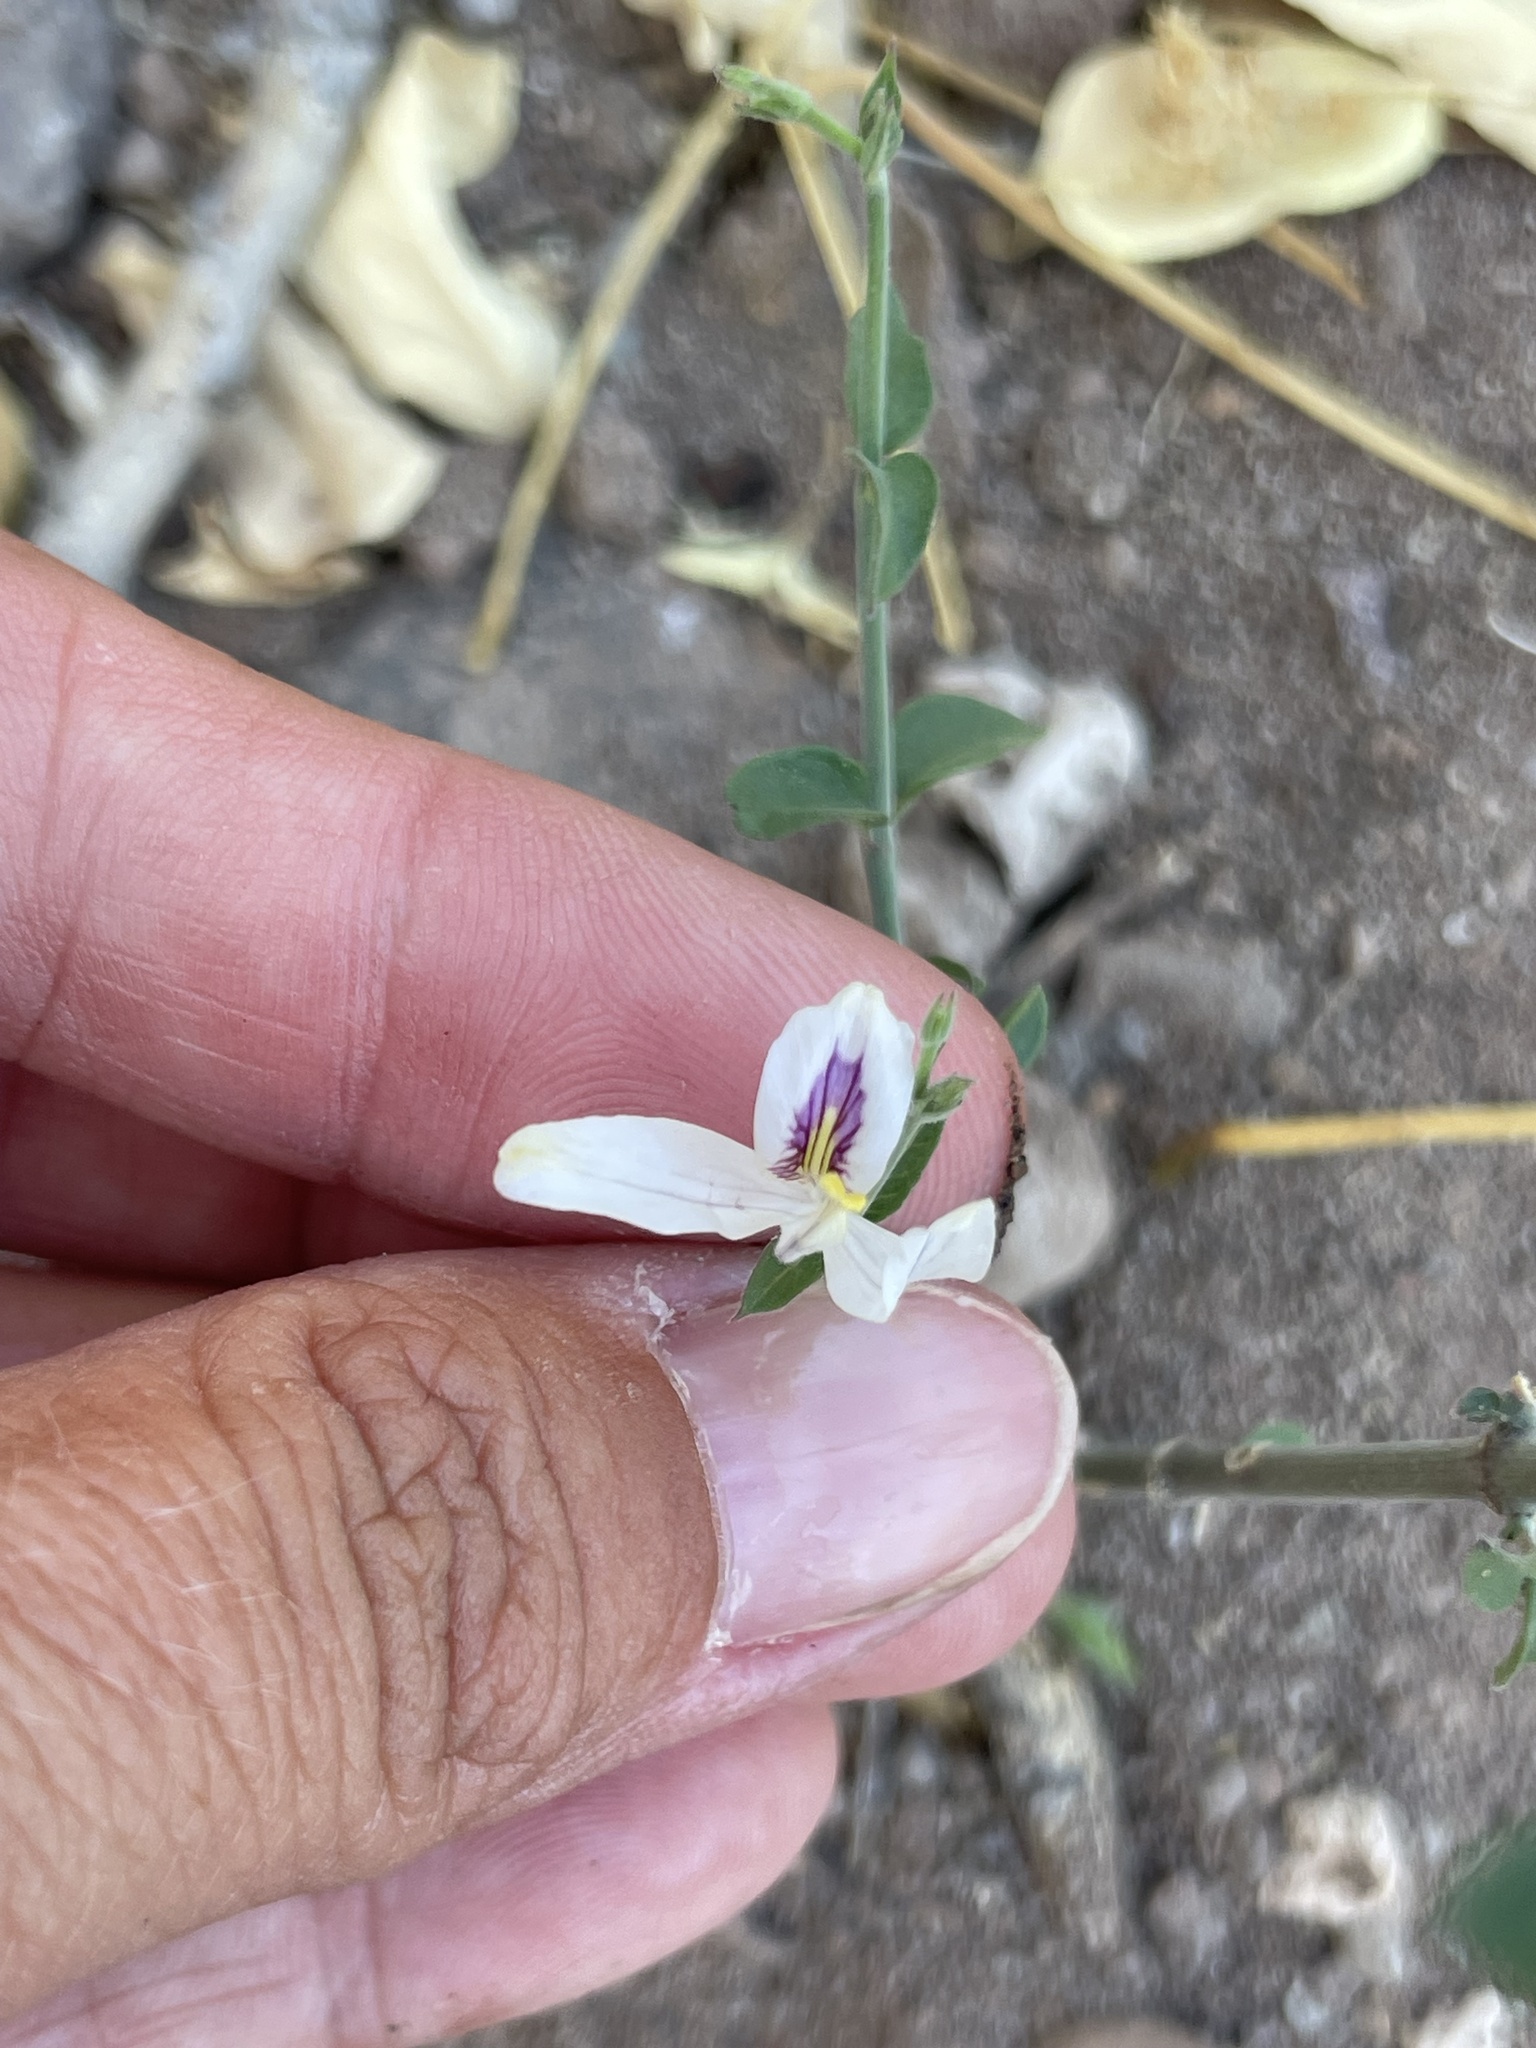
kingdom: Plantae
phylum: Tracheophyta
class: Magnoliopsida
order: Lamiales
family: Acanthaceae
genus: Carlowrightia
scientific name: Carlowrightia arizonica
